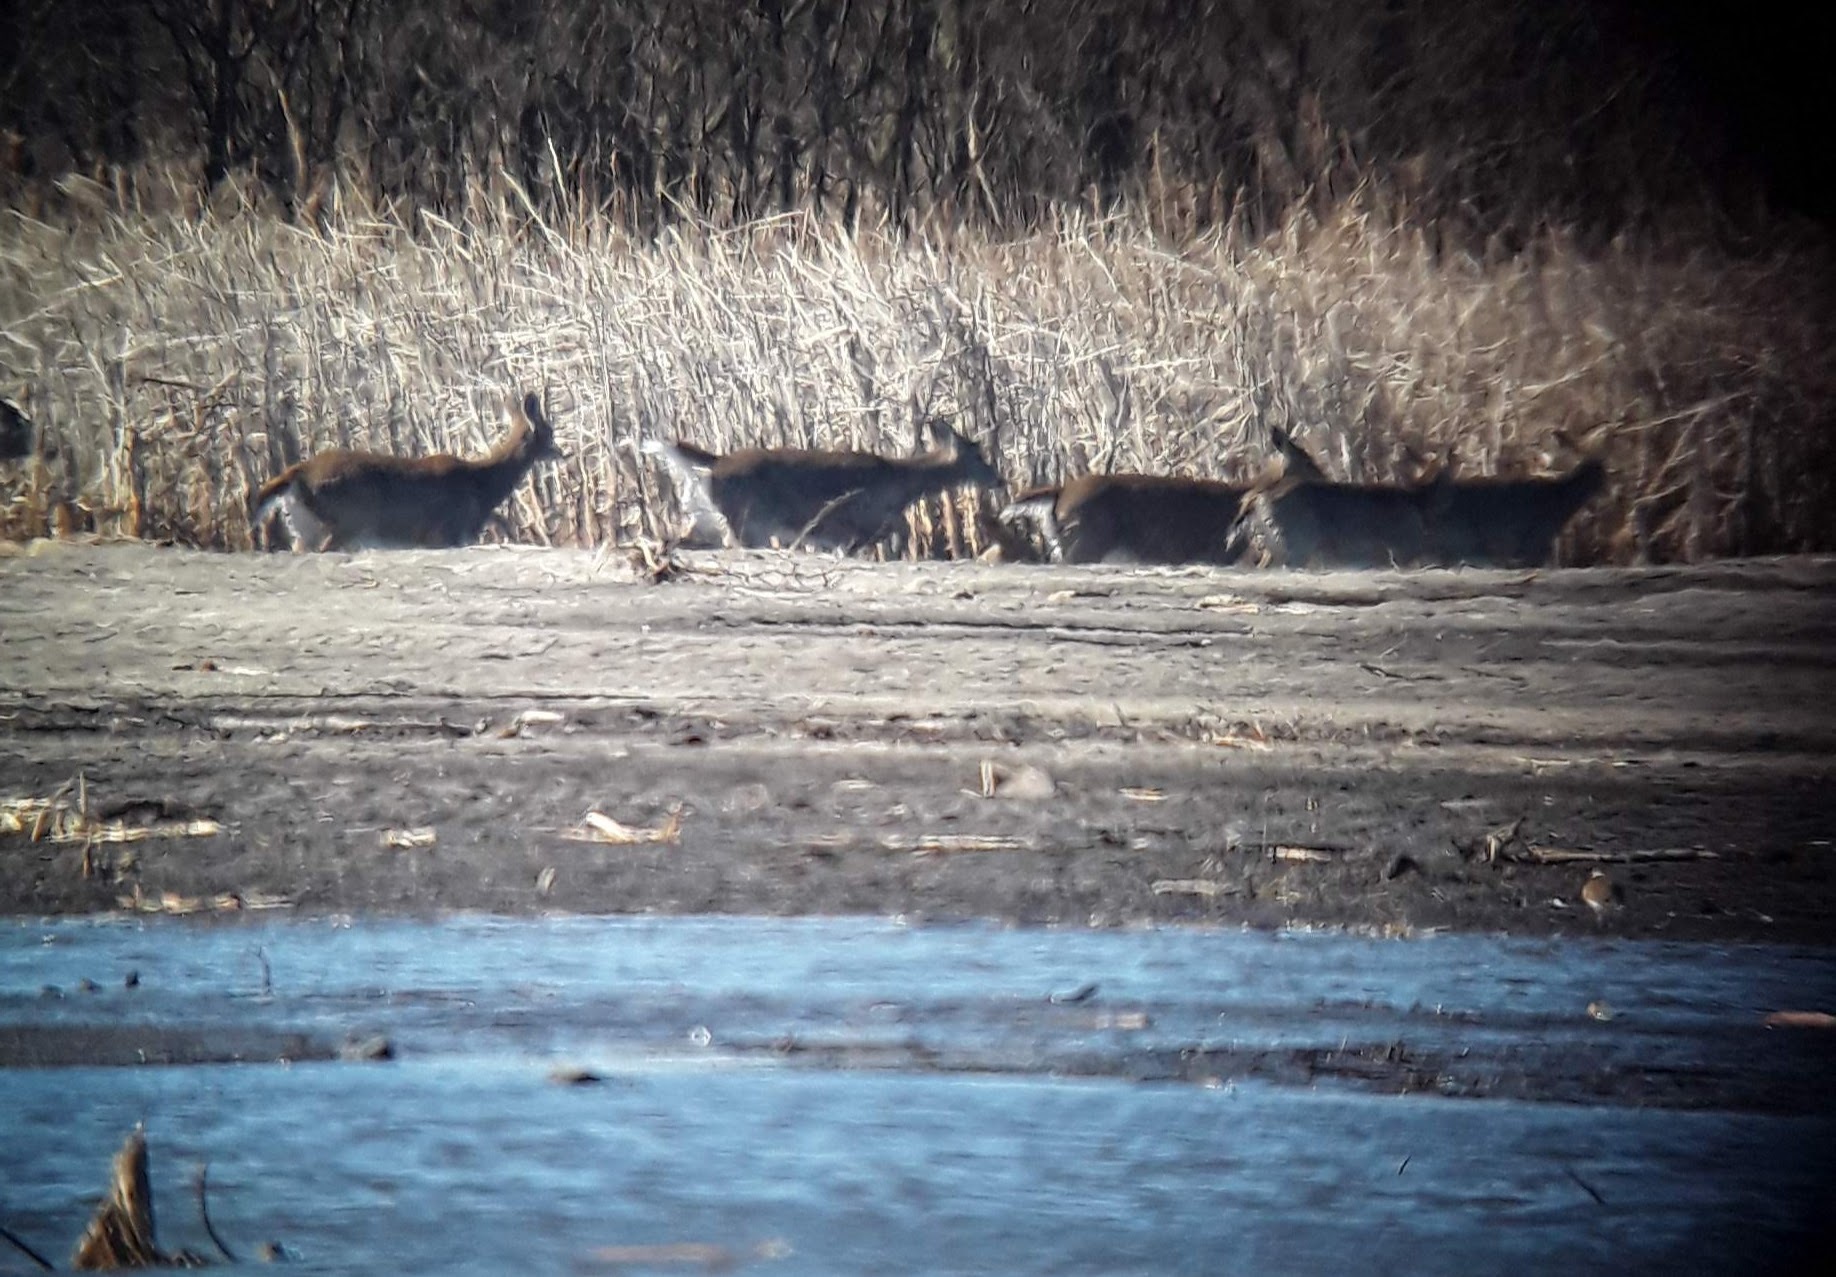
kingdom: Animalia
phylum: Chordata
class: Mammalia
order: Artiodactyla
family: Cervidae
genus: Odocoileus
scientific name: Odocoileus virginianus
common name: White-tailed deer
